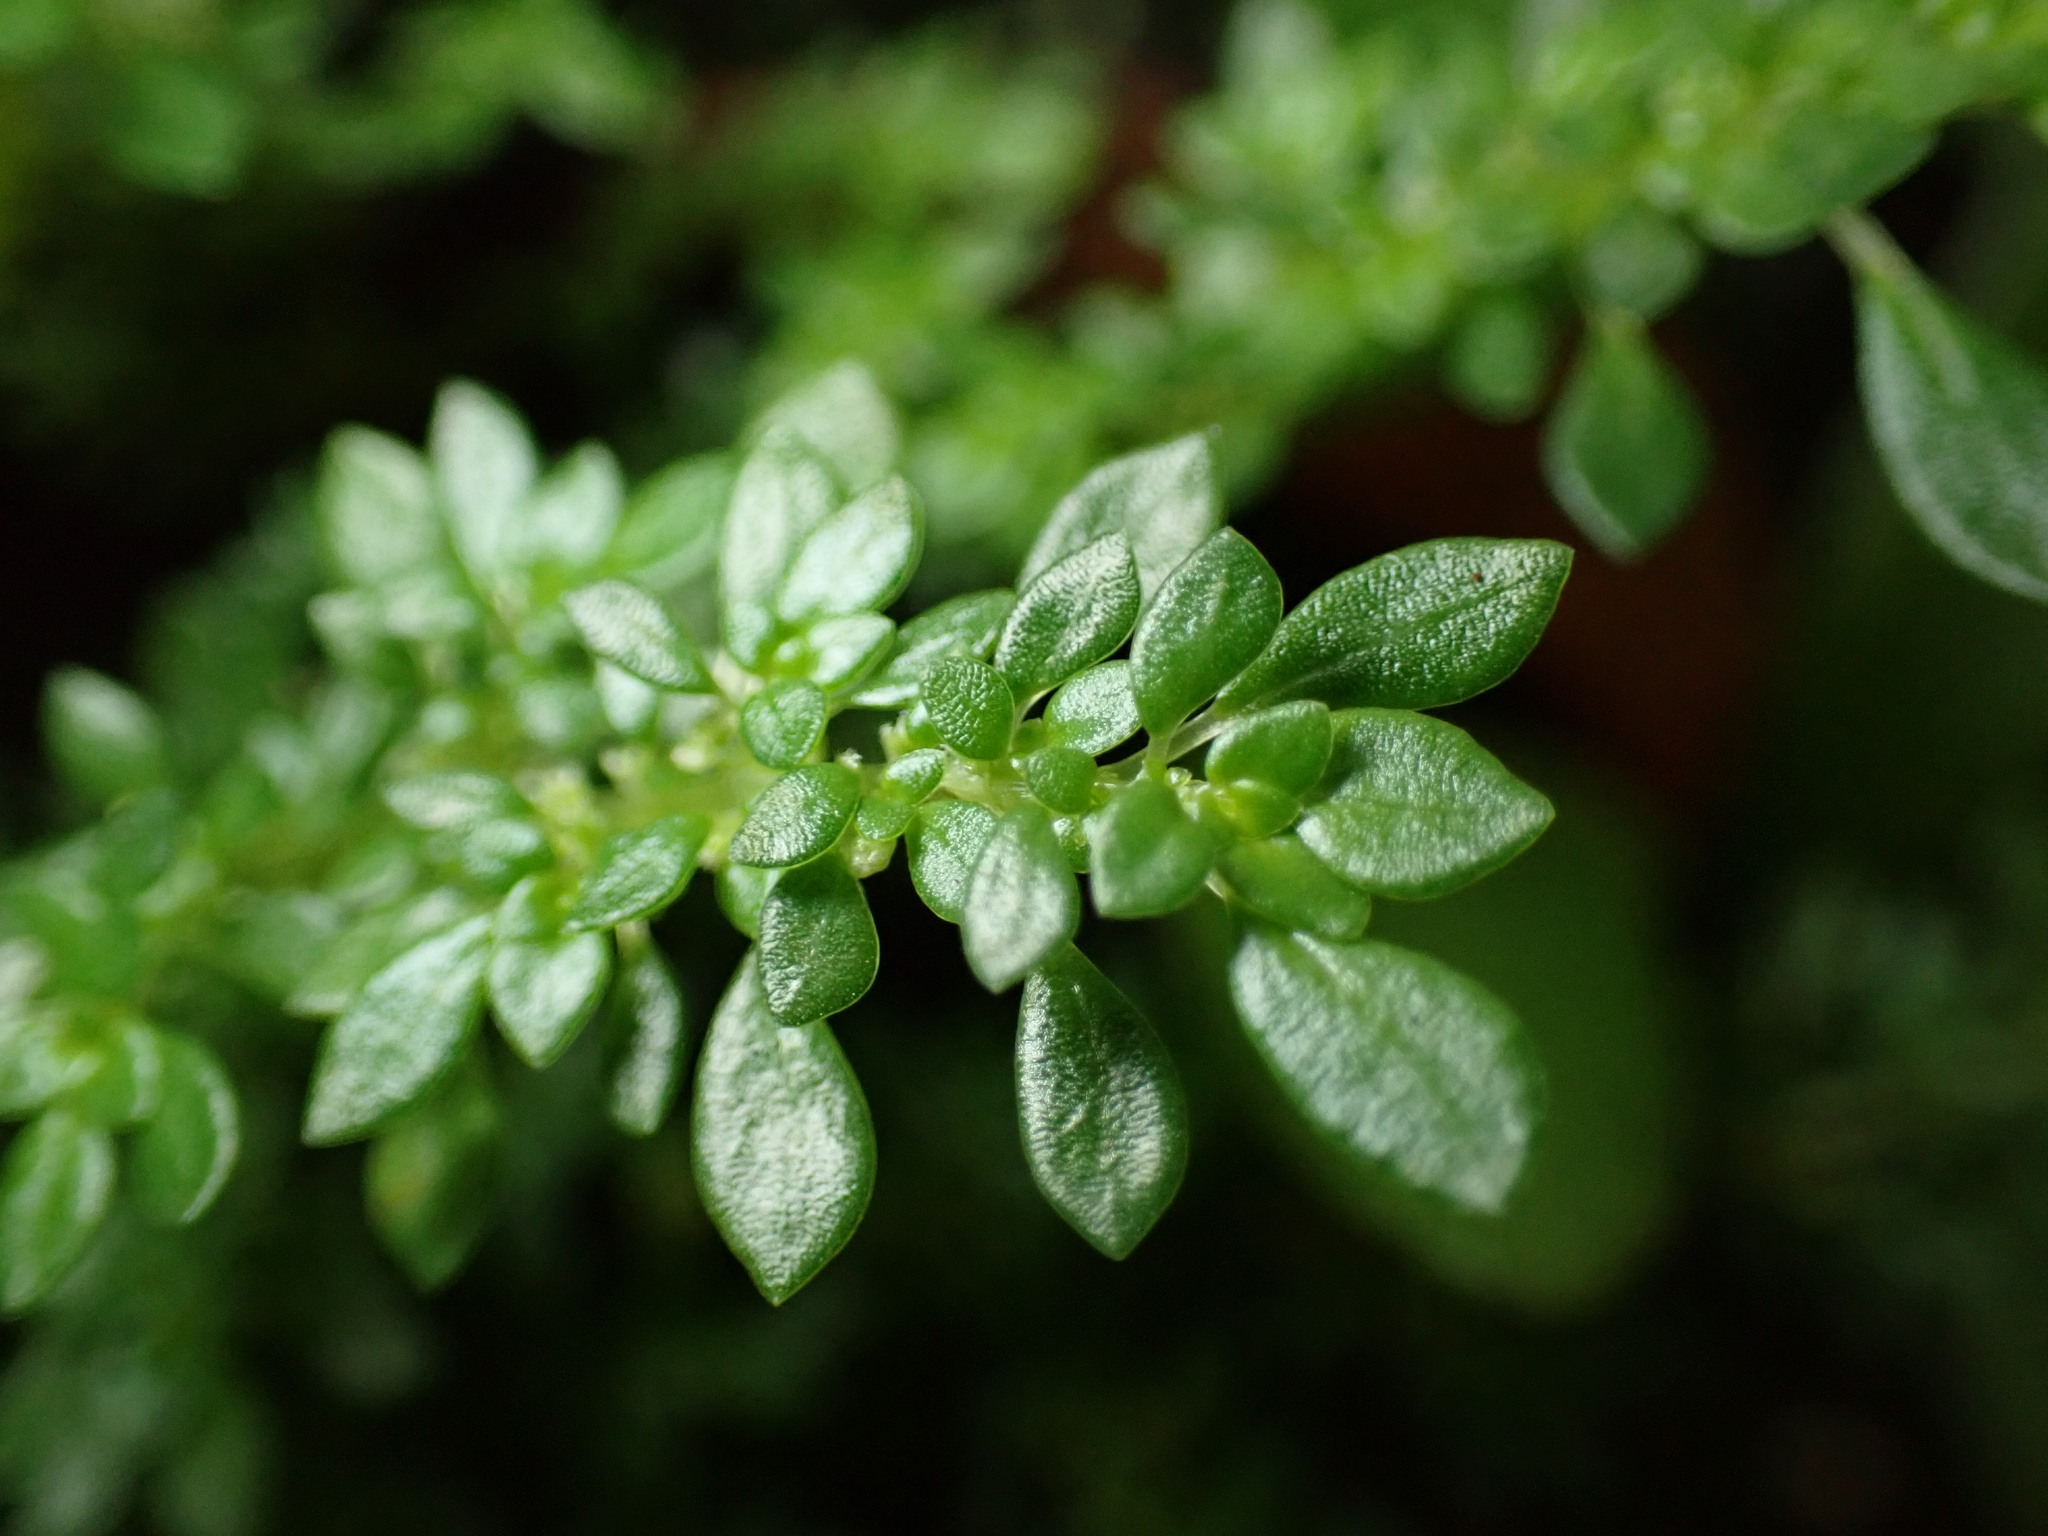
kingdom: Plantae
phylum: Tracheophyta
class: Magnoliopsida
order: Rosales
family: Urticaceae
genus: Pilea
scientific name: Pilea microphylla
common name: Artillery-plant
